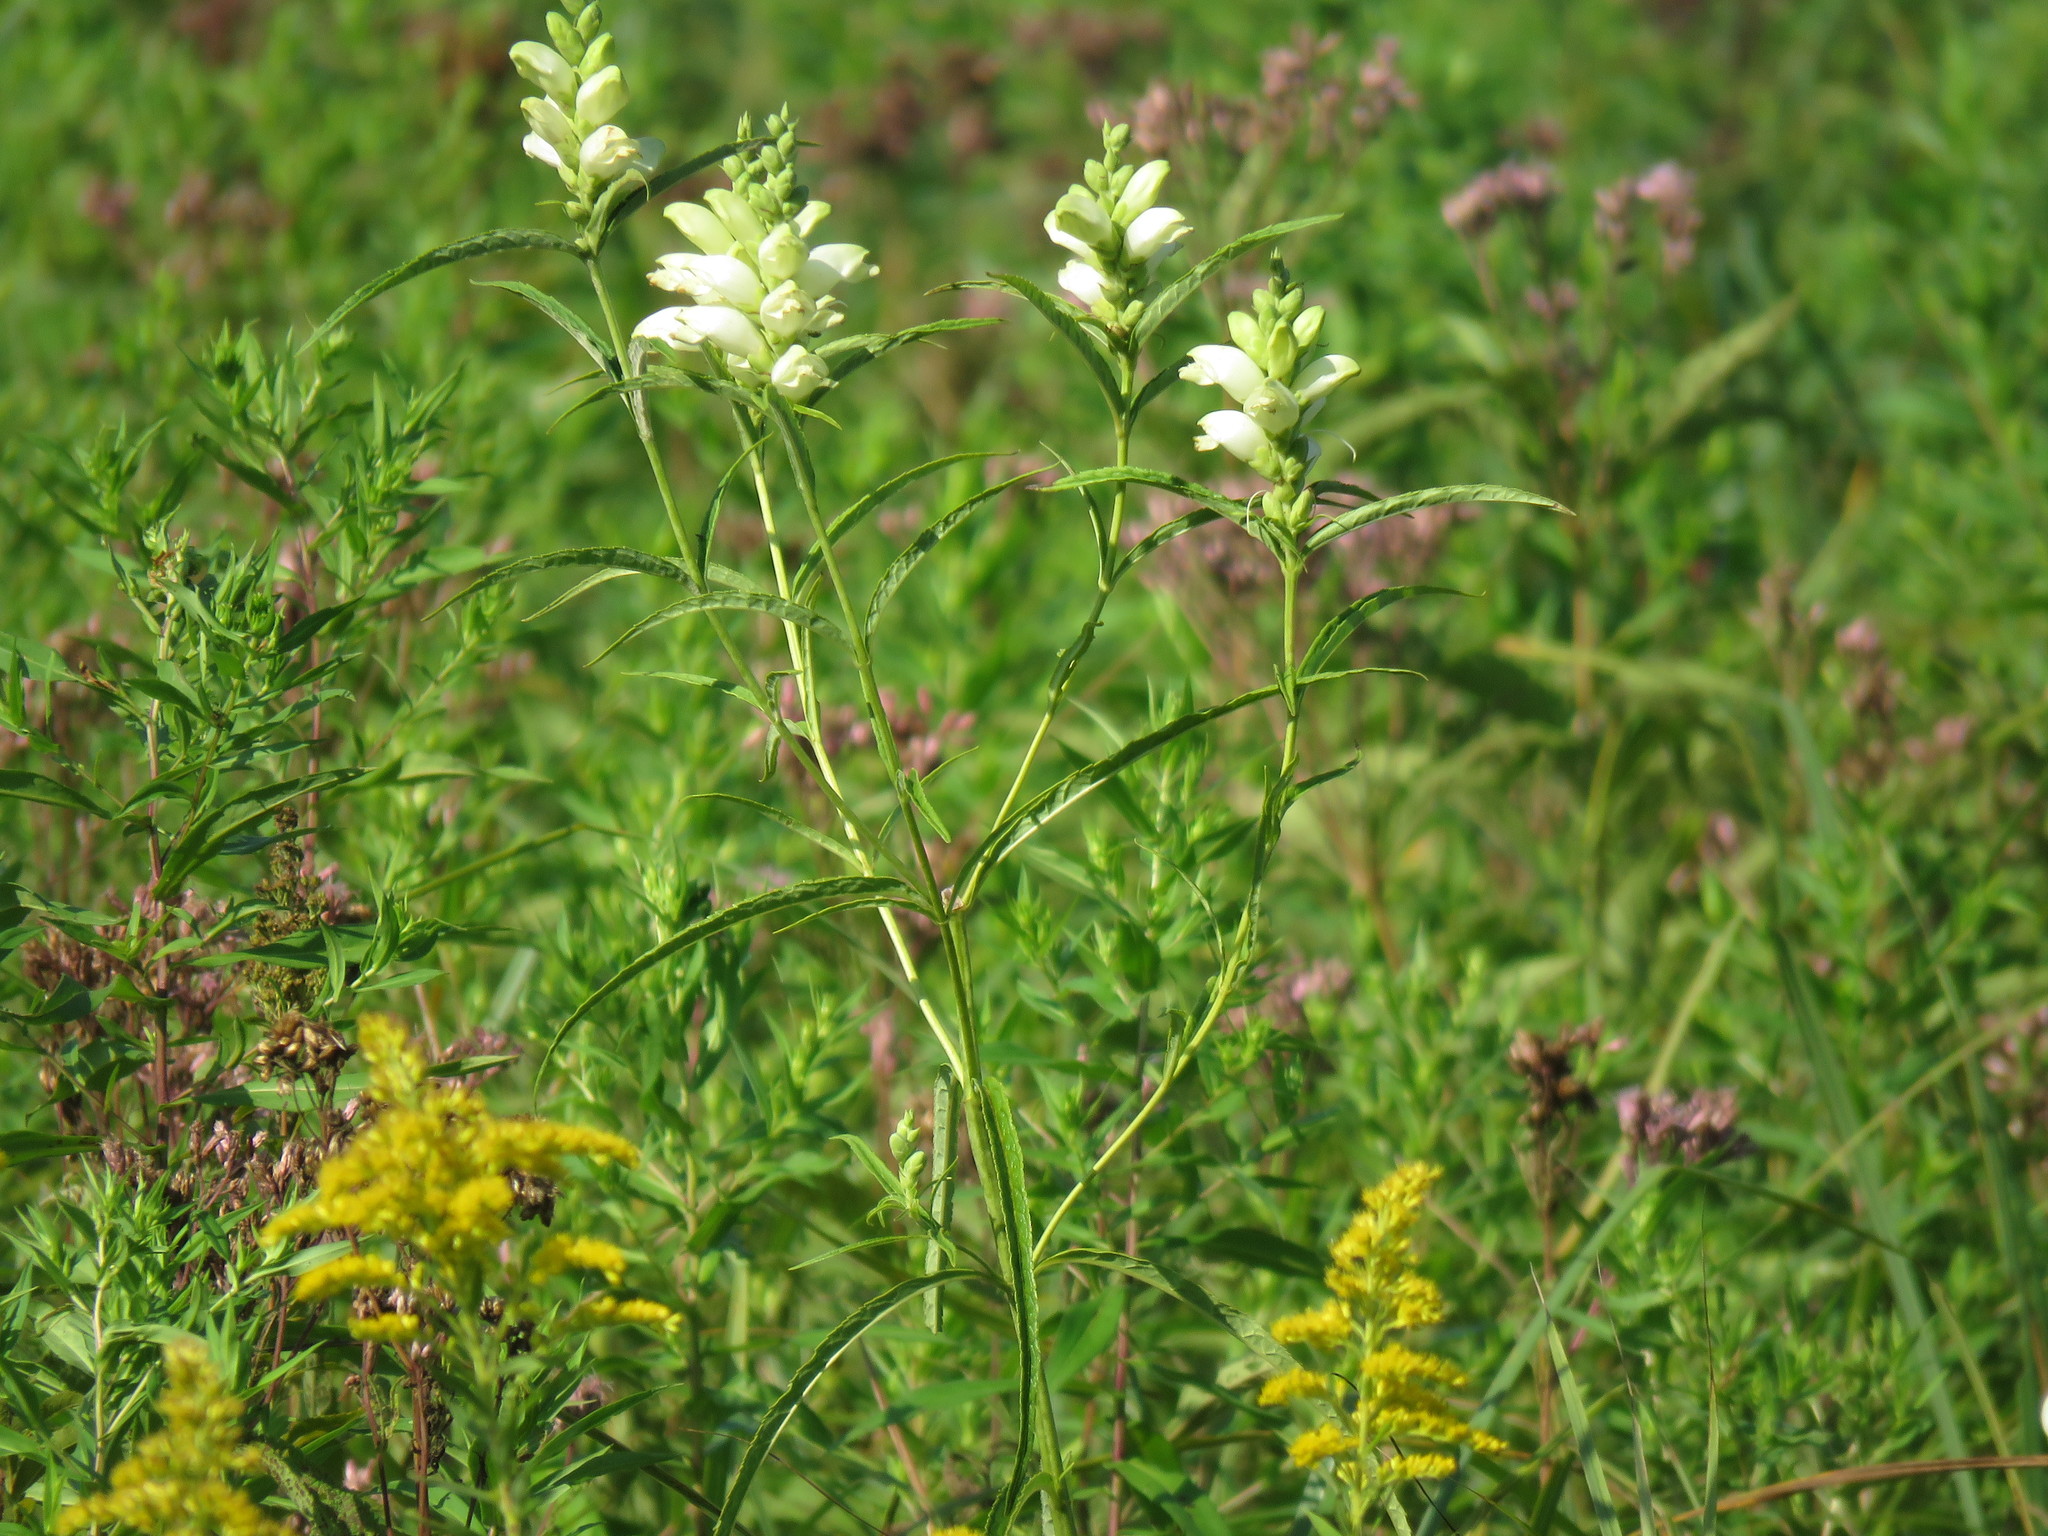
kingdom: Plantae
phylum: Tracheophyta
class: Magnoliopsida
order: Lamiales
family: Plantaginaceae
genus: Chelone
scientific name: Chelone glabra
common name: Snakehead
